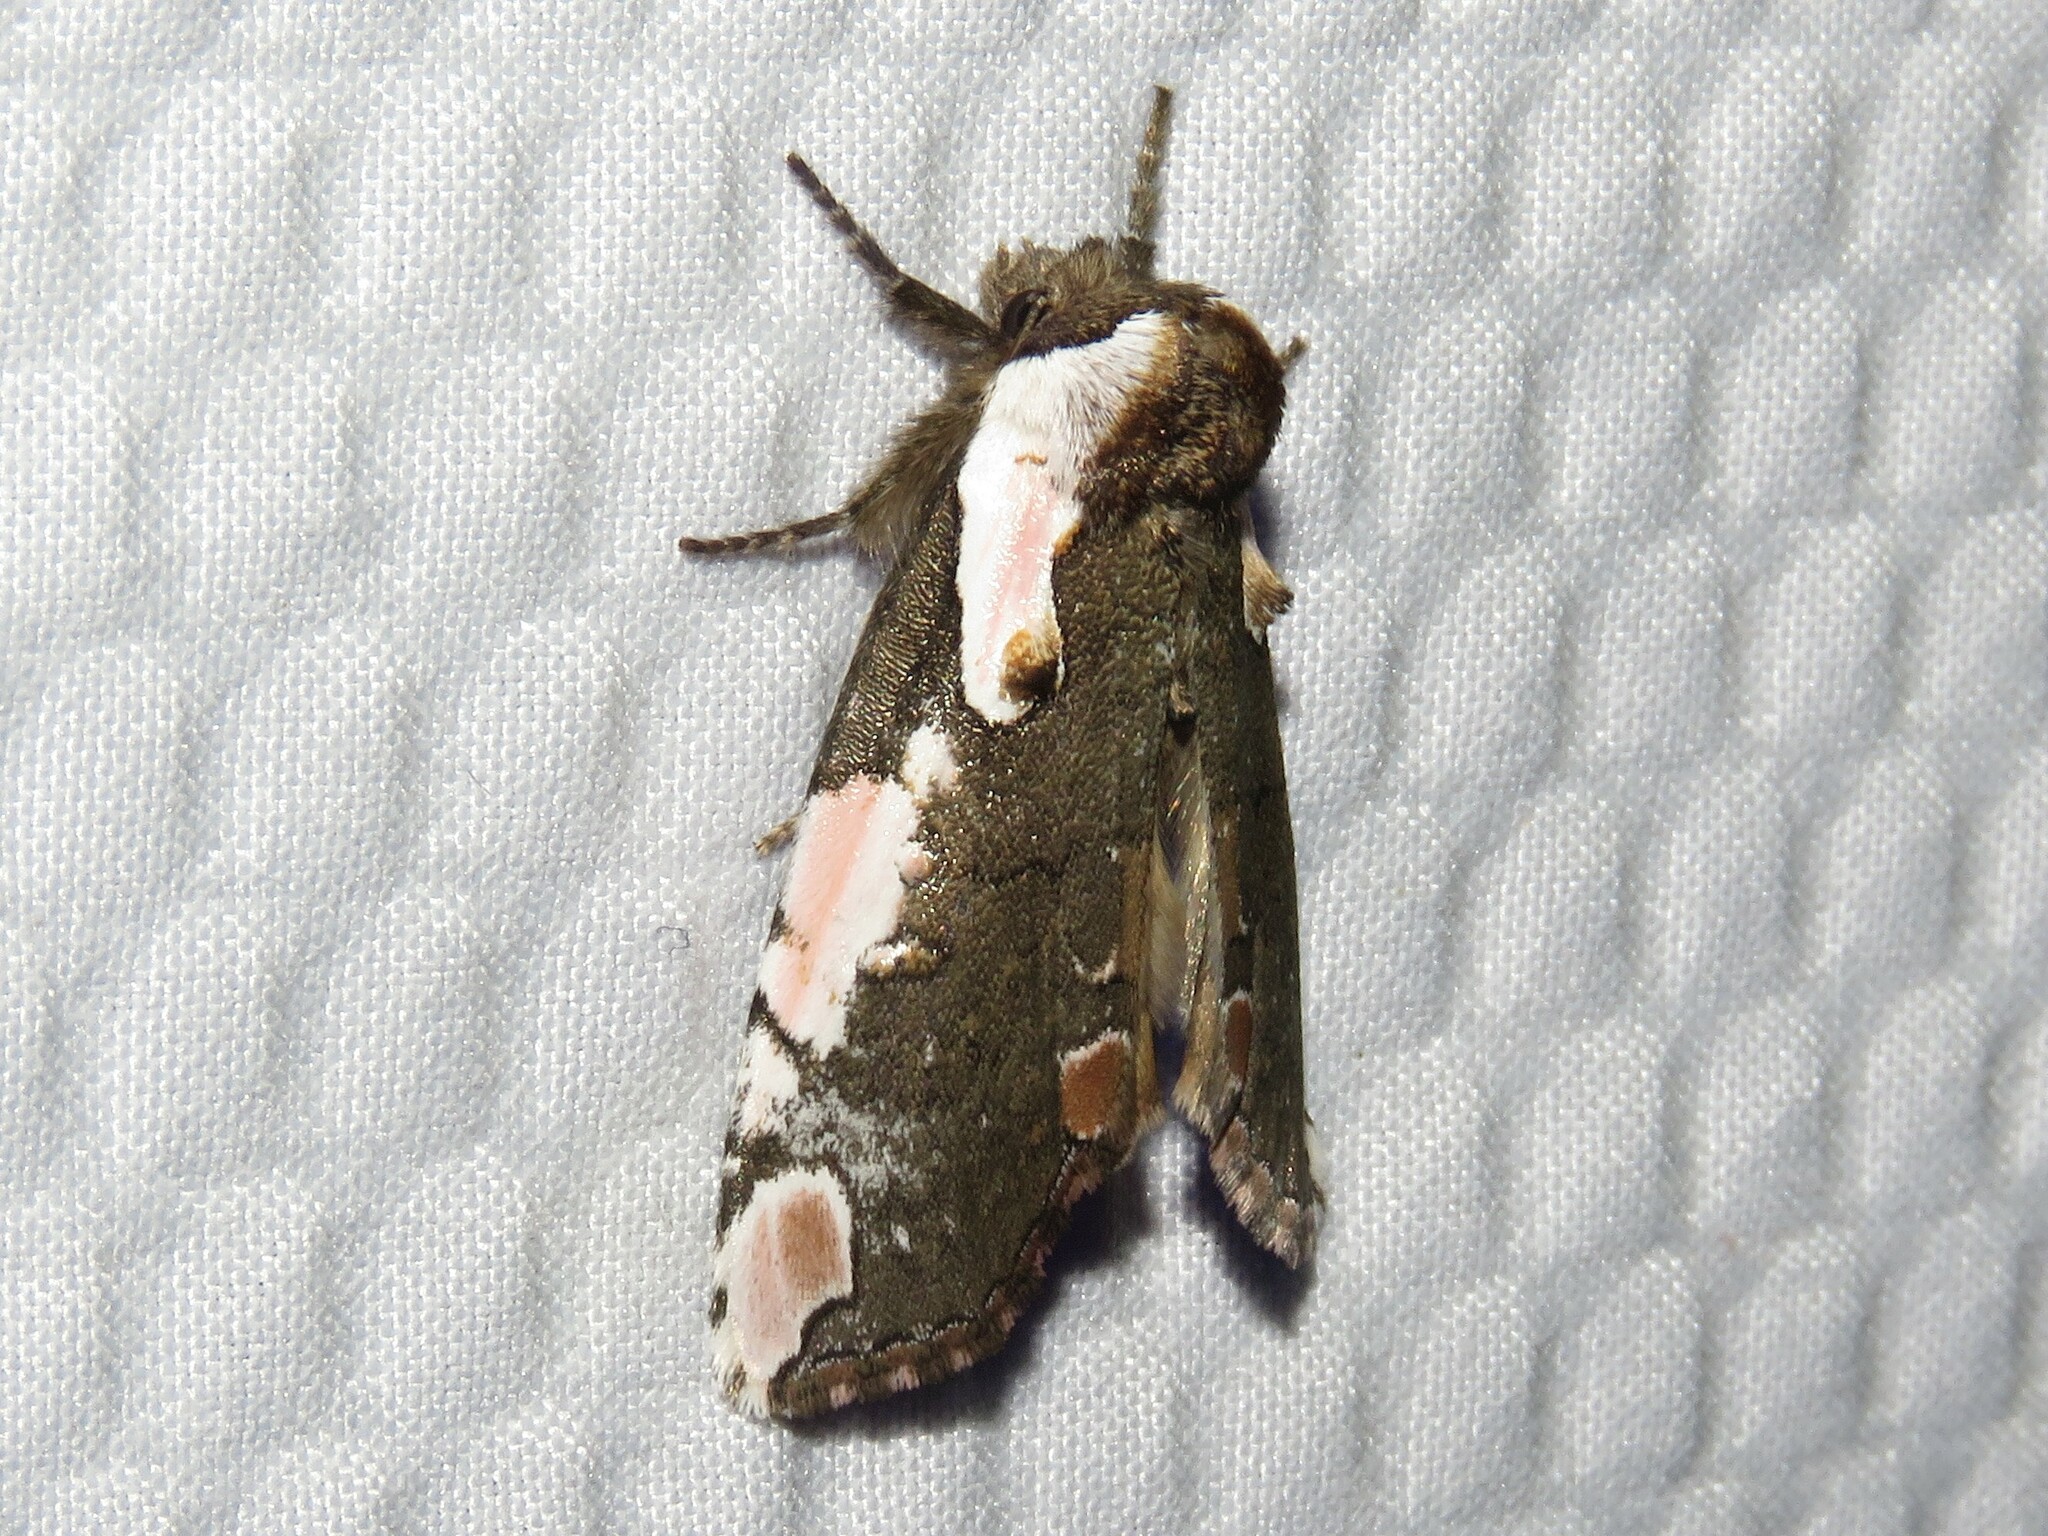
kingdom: Animalia
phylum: Arthropoda
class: Insecta
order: Lepidoptera
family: Drepanidae
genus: Euthyatira
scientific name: Euthyatira pudens
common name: Dogwood thyatirid moth
